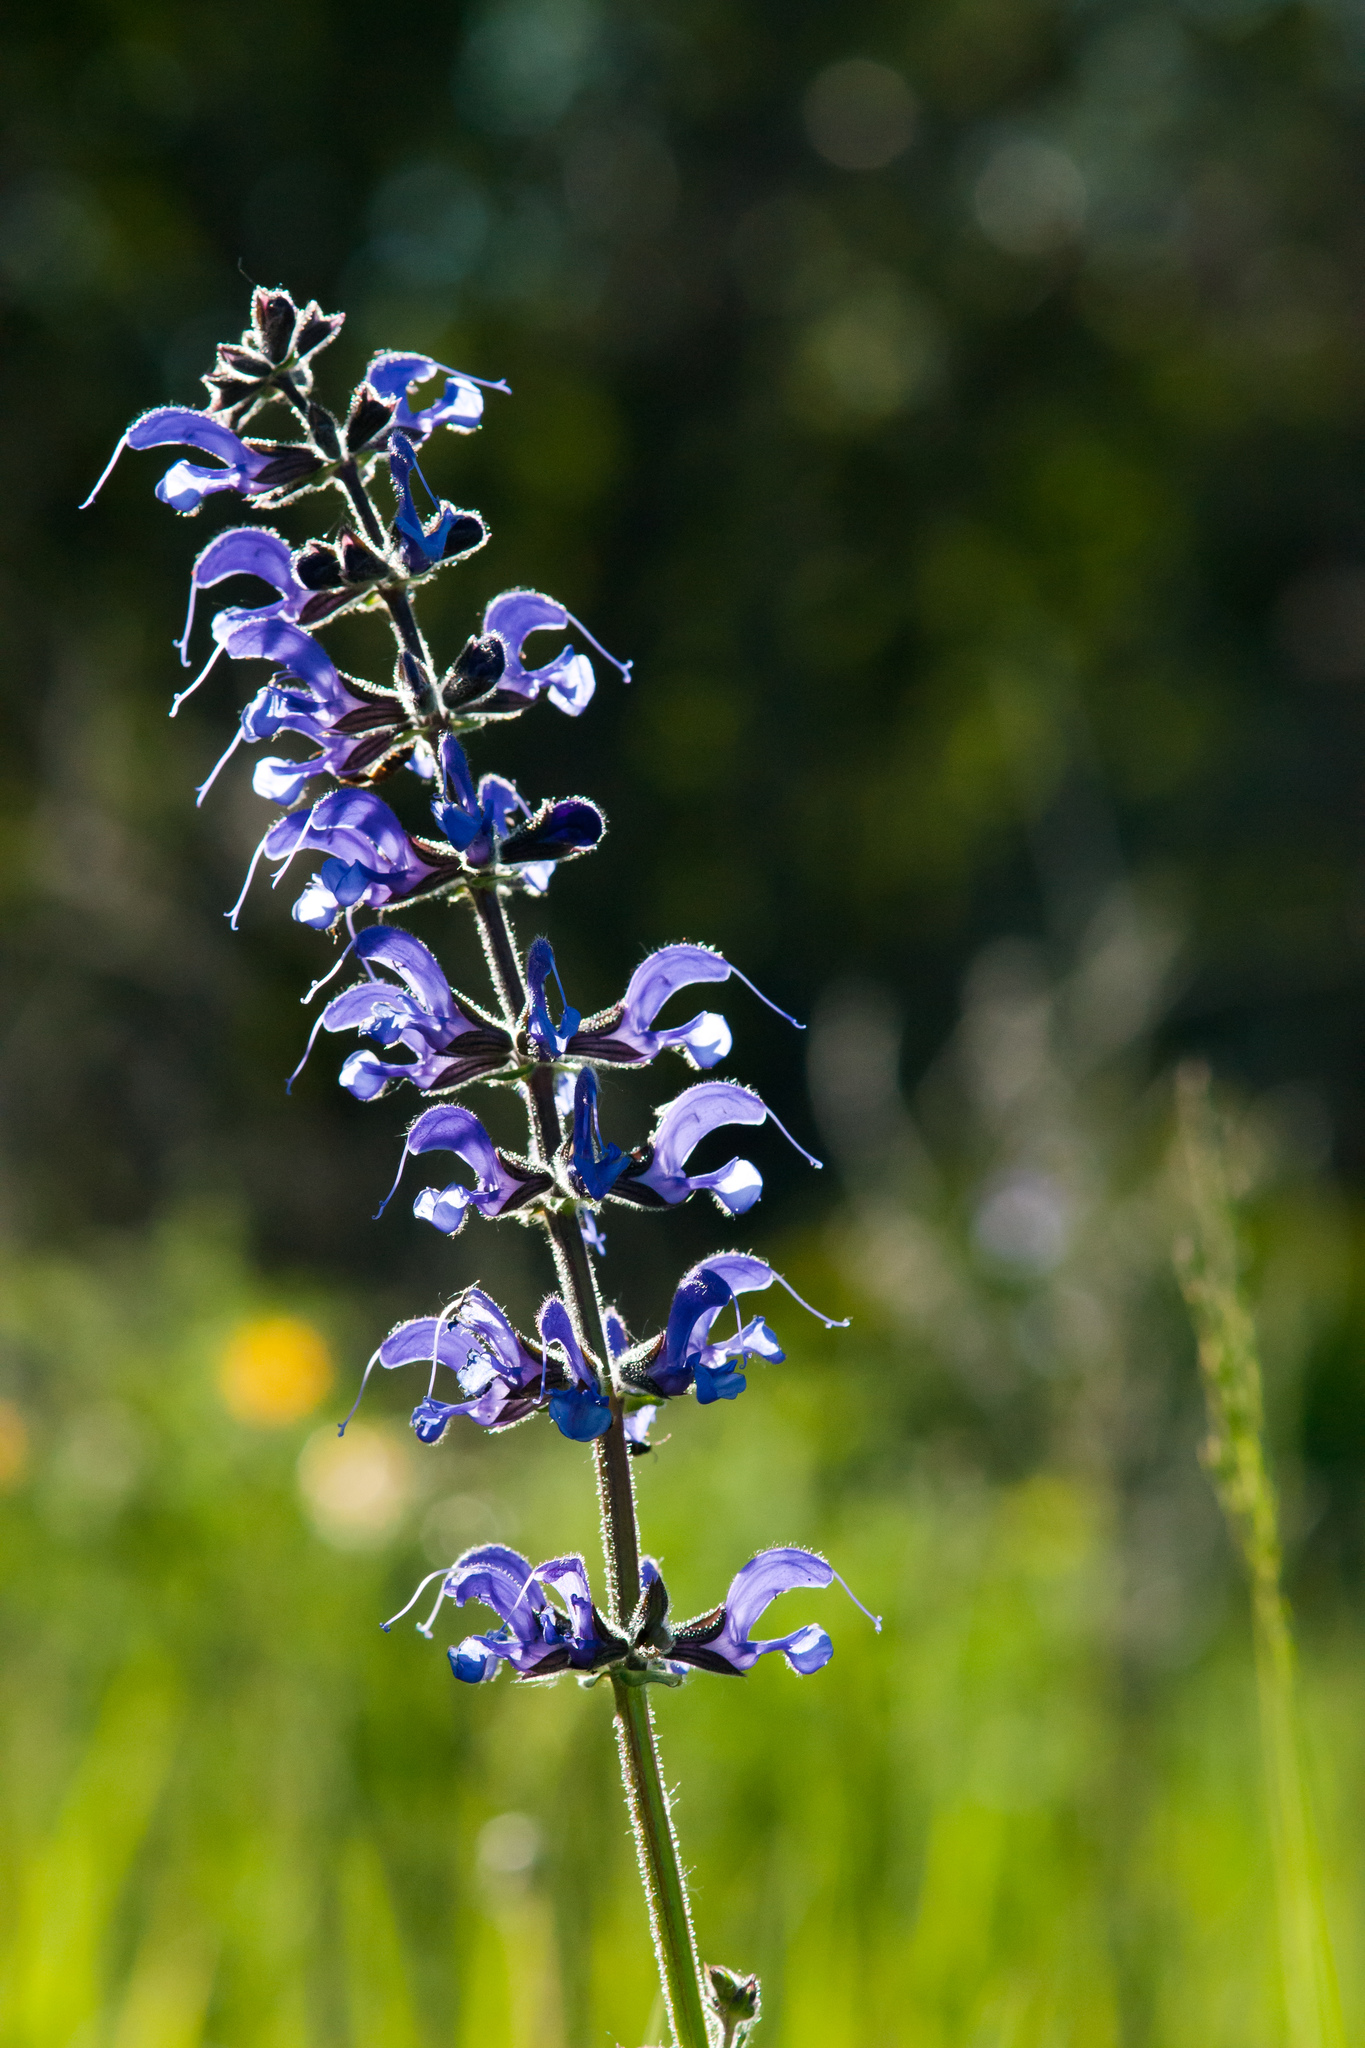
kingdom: Plantae
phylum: Tracheophyta
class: Magnoliopsida
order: Lamiales
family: Lamiaceae
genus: Salvia
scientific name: Salvia dumetorum
